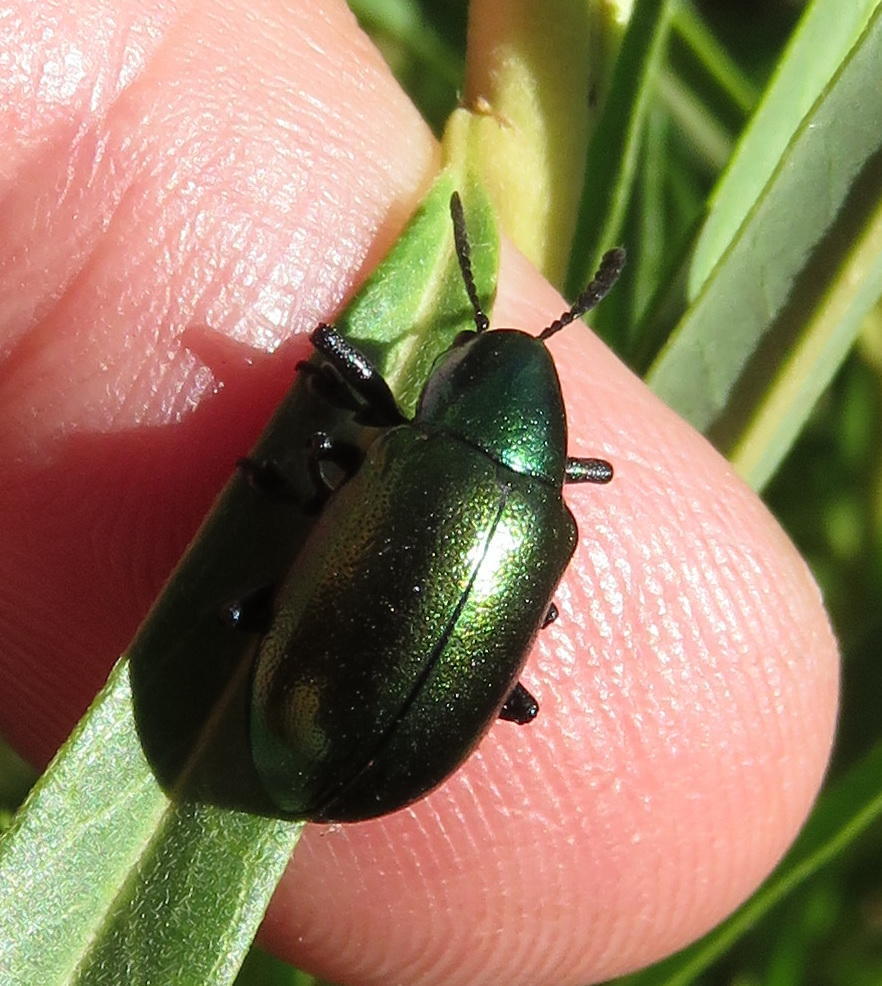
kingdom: Animalia
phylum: Arthropoda
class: Insecta
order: Coleoptera
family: Chrysomelidae
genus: Platycorynus
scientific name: Platycorynus dejeani
